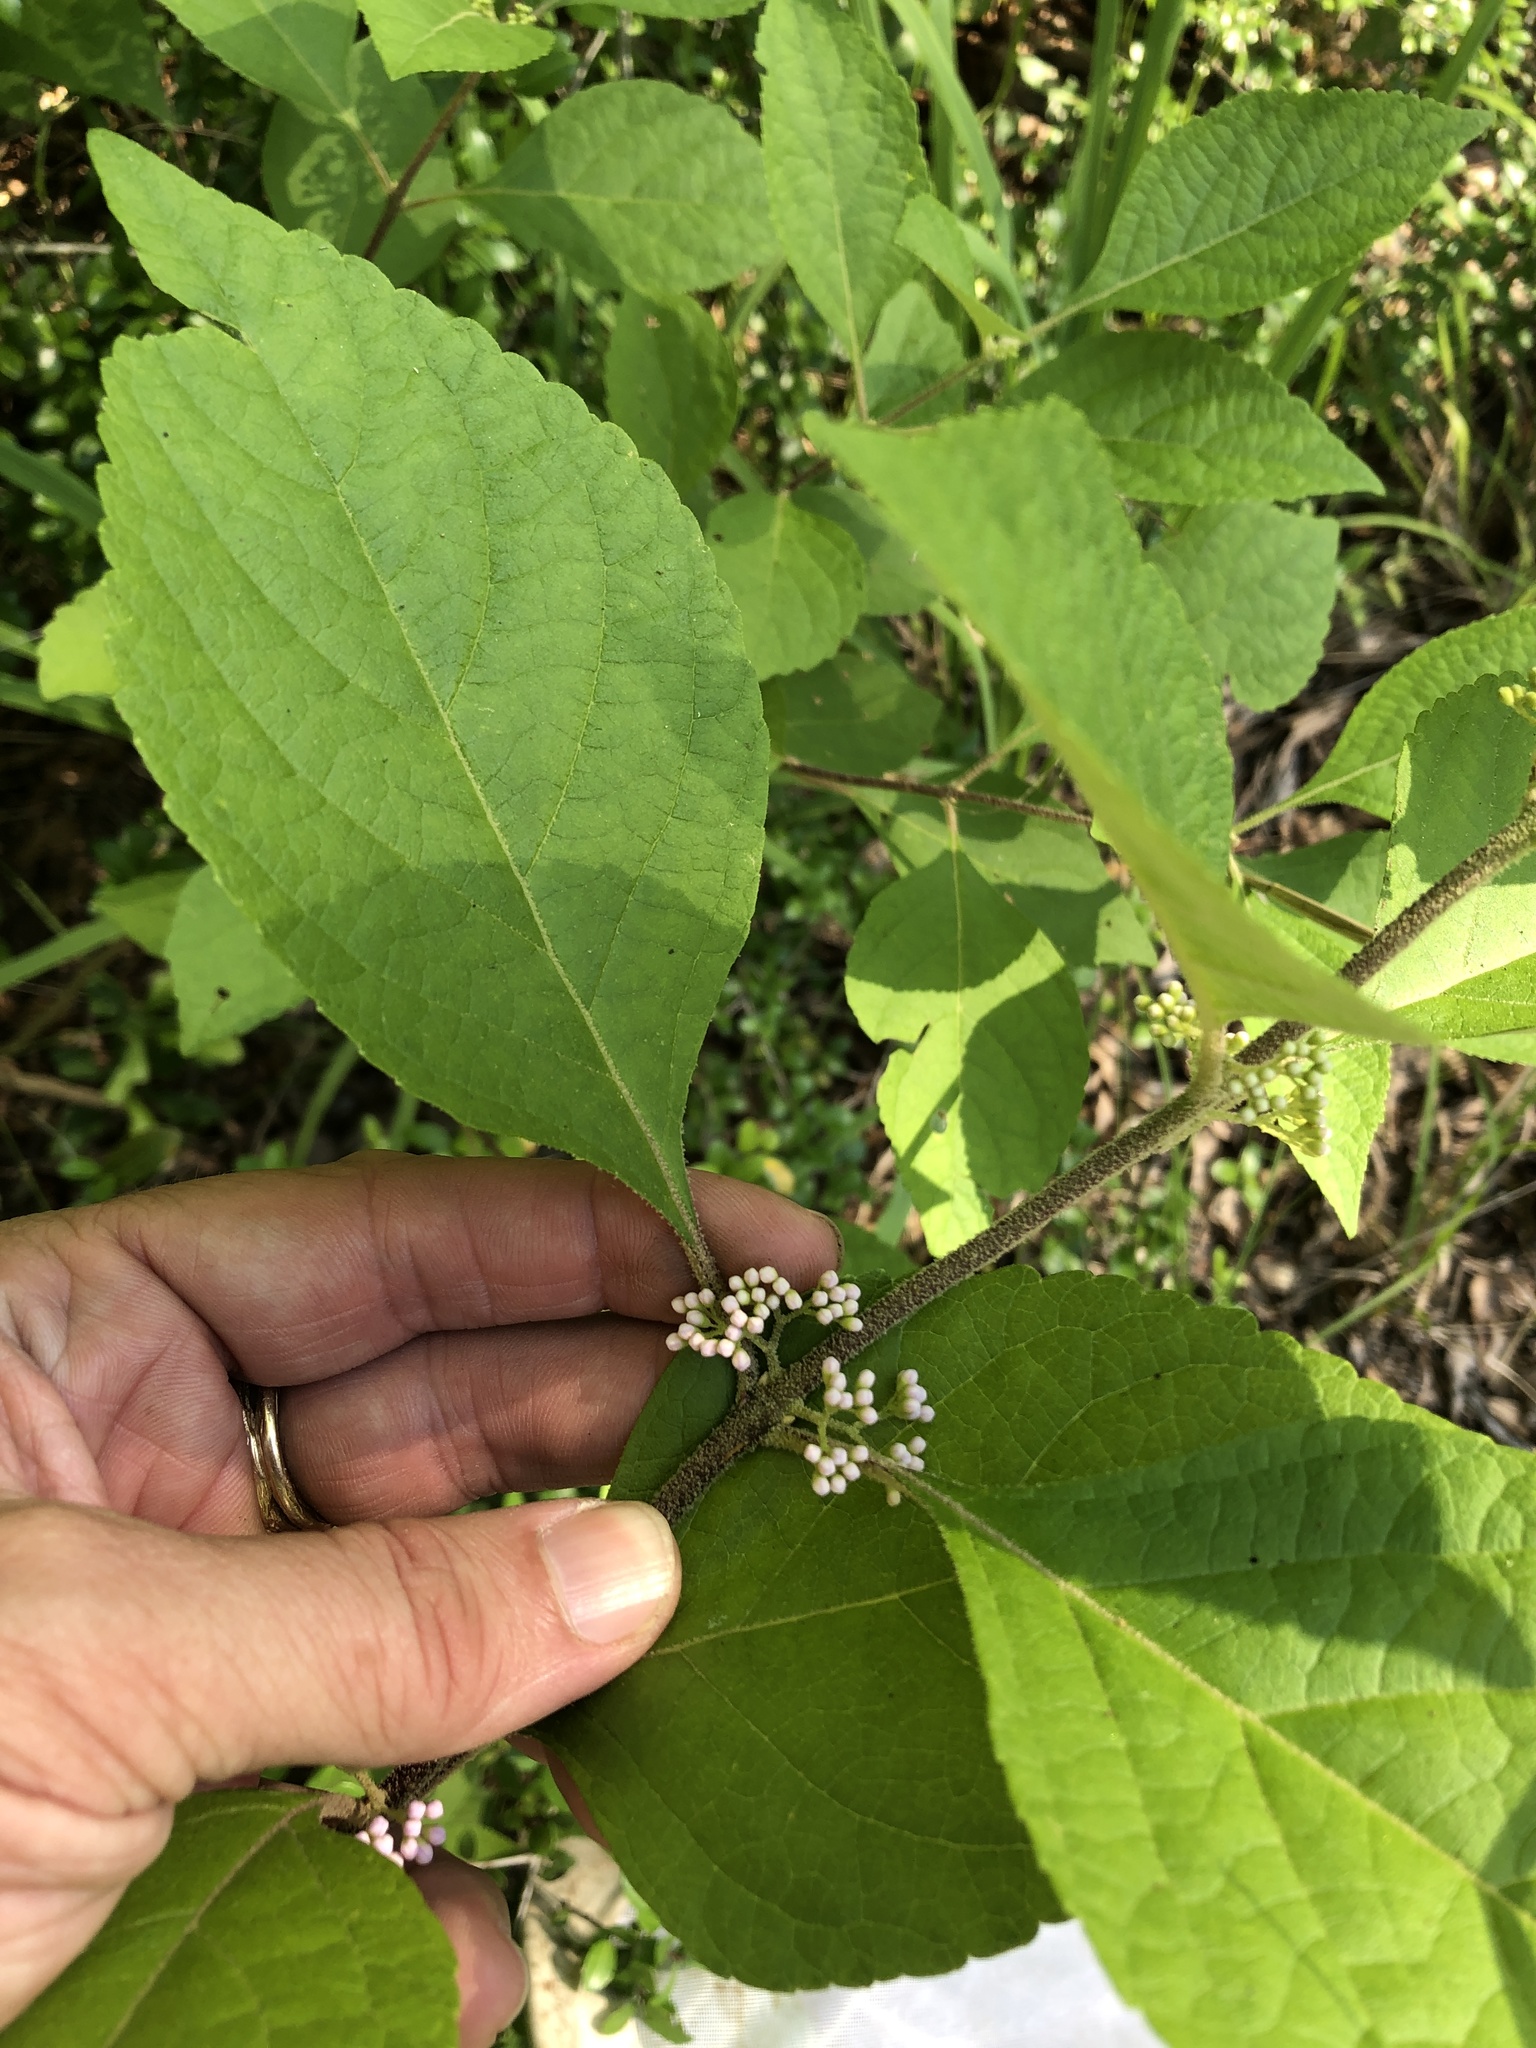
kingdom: Plantae
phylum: Tracheophyta
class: Magnoliopsida
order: Lamiales
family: Lamiaceae
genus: Callicarpa
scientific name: Callicarpa americana
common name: American beautyberry
